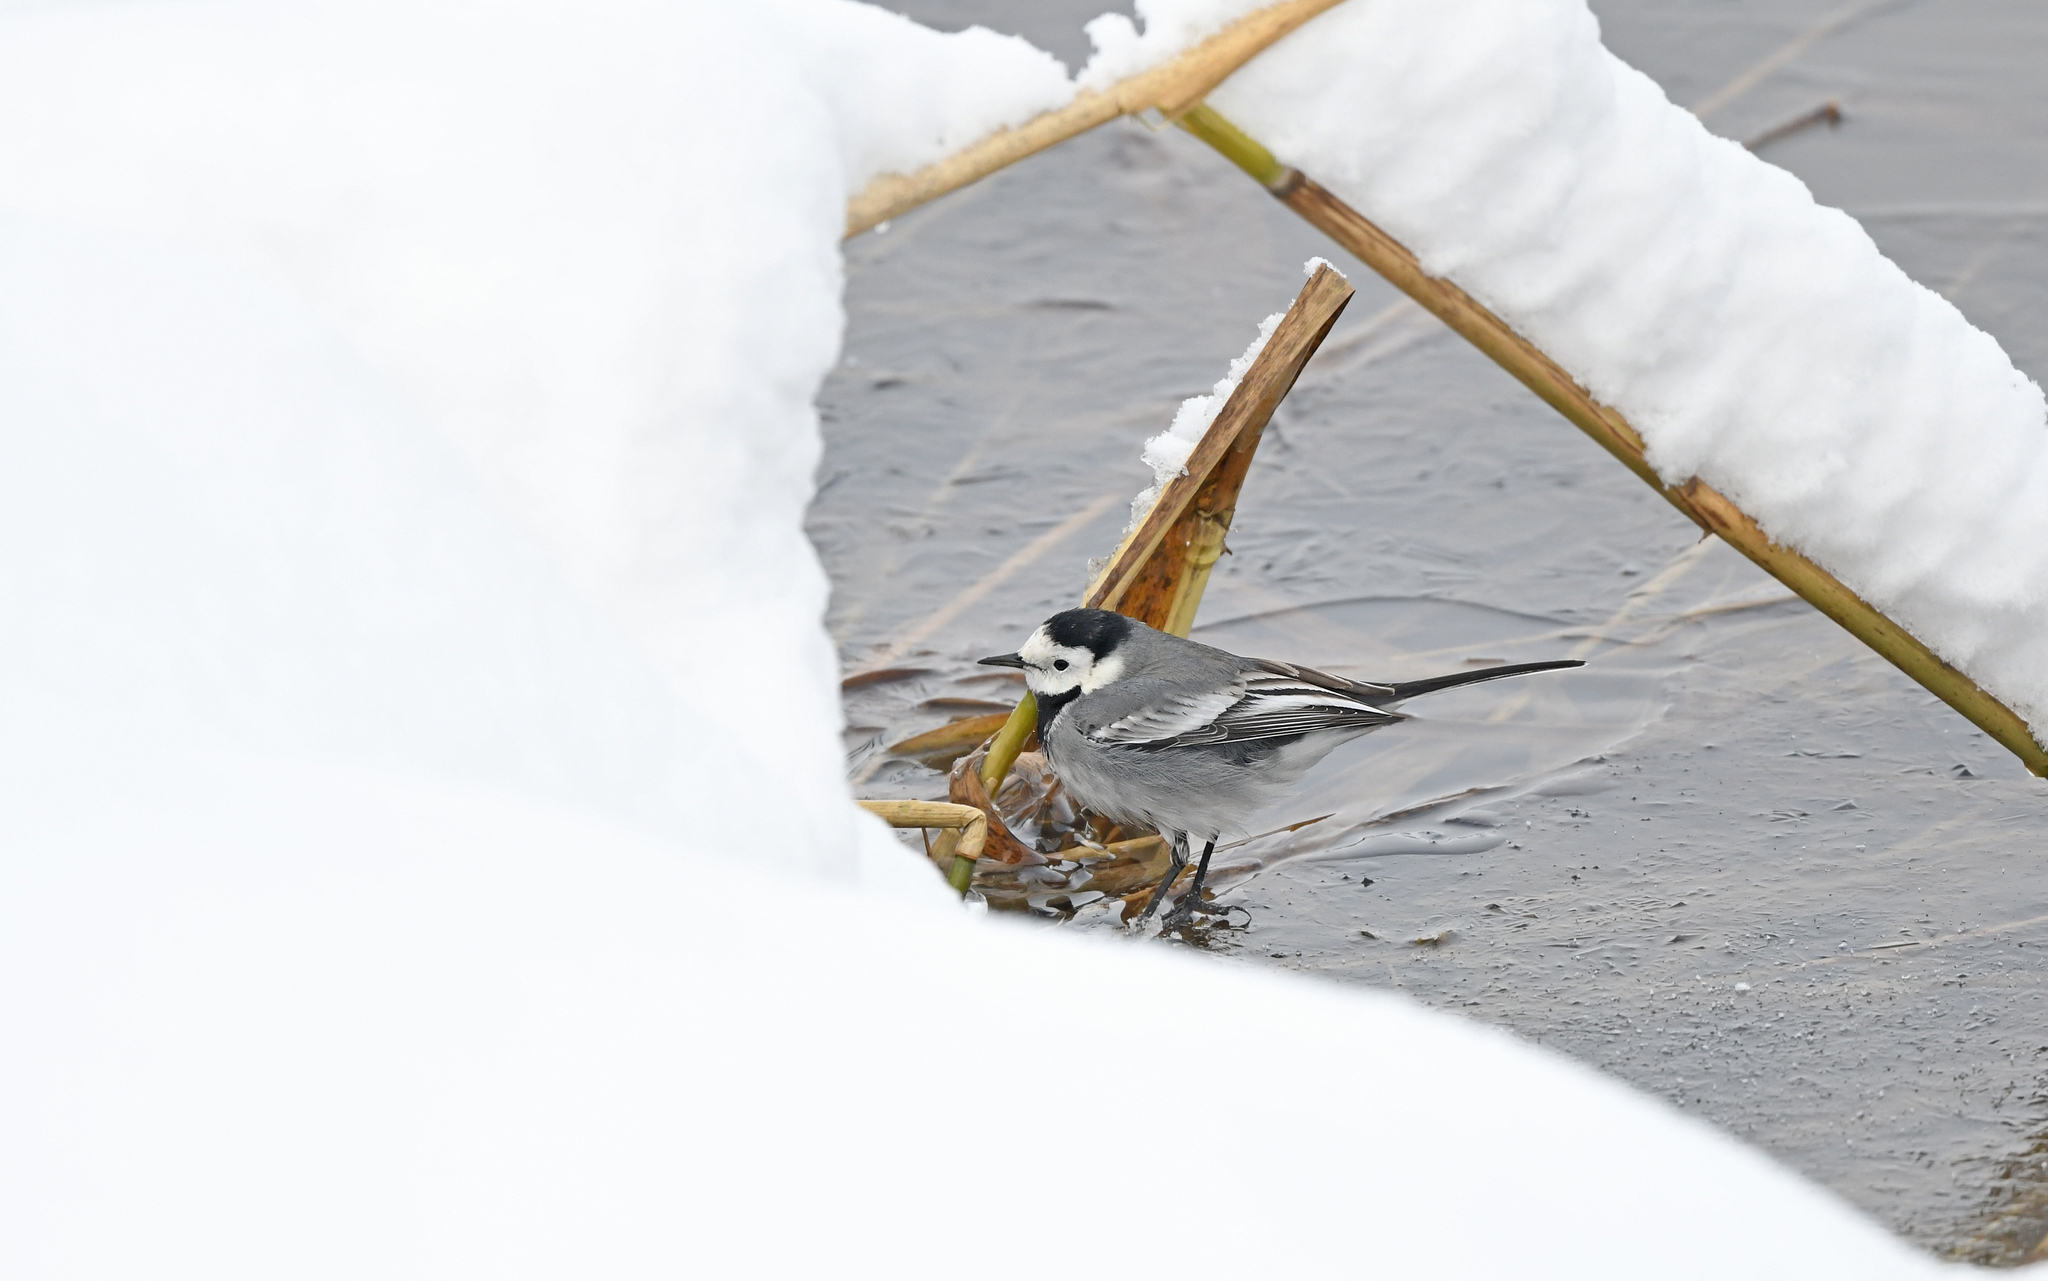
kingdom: Animalia
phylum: Chordata
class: Aves
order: Passeriformes
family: Motacillidae
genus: Motacilla
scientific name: Motacilla alba
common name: White wagtail
